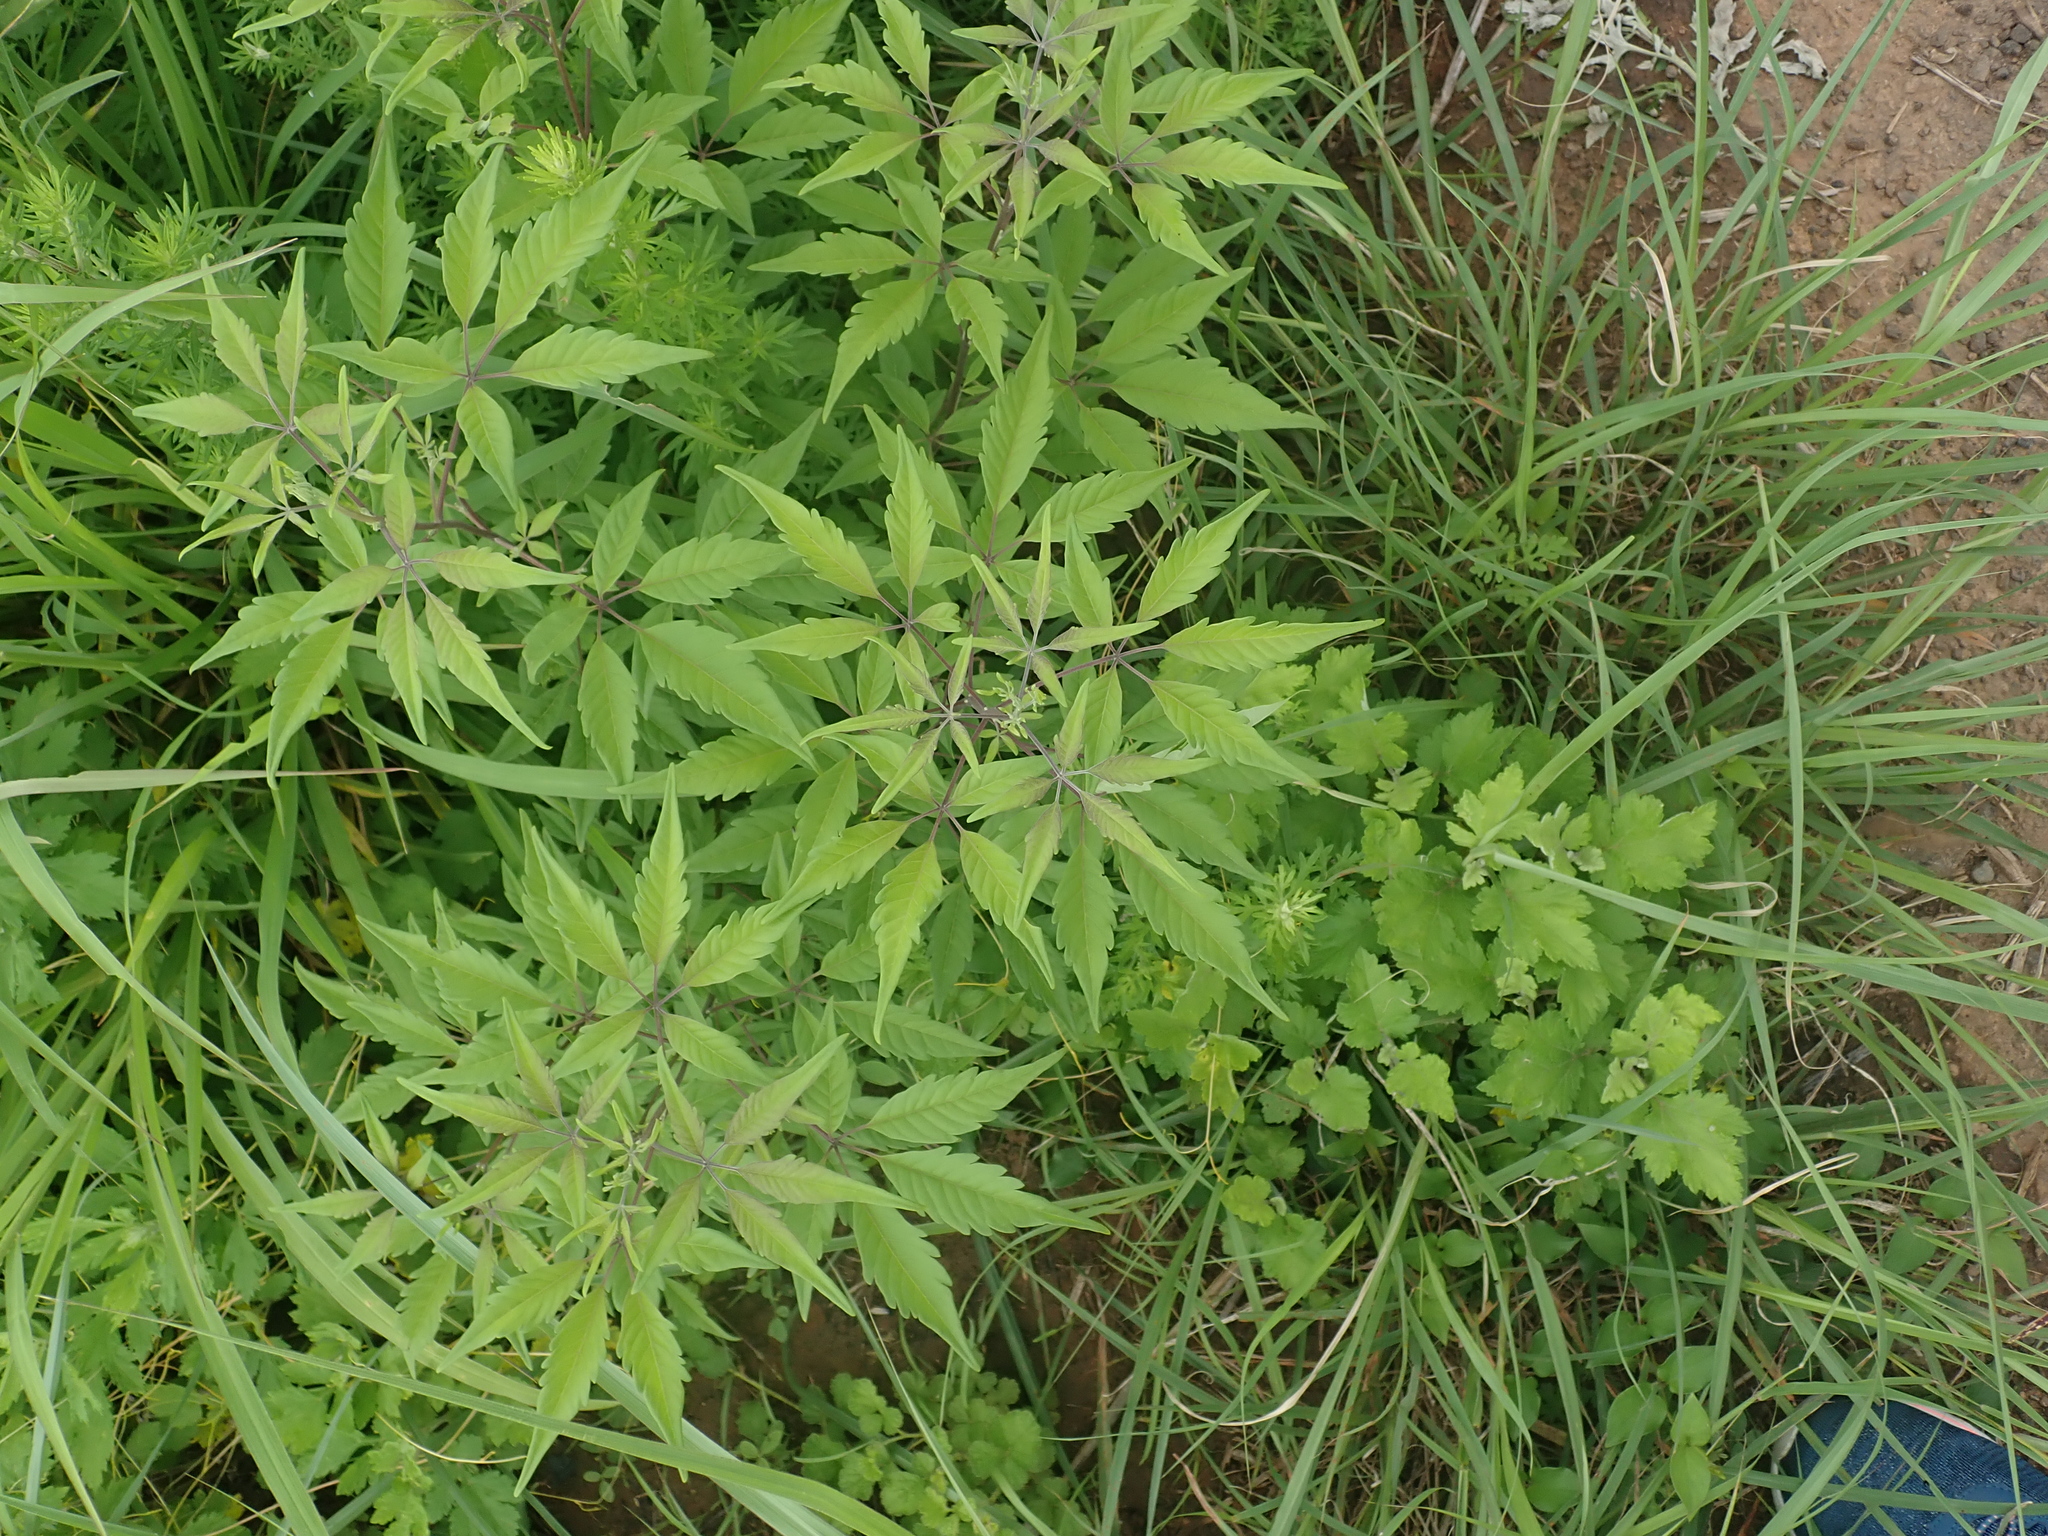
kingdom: Plantae
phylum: Tracheophyta
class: Magnoliopsida
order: Lamiales
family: Lamiaceae
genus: Vitex
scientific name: Vitex negundo
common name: Chinese chastetree
